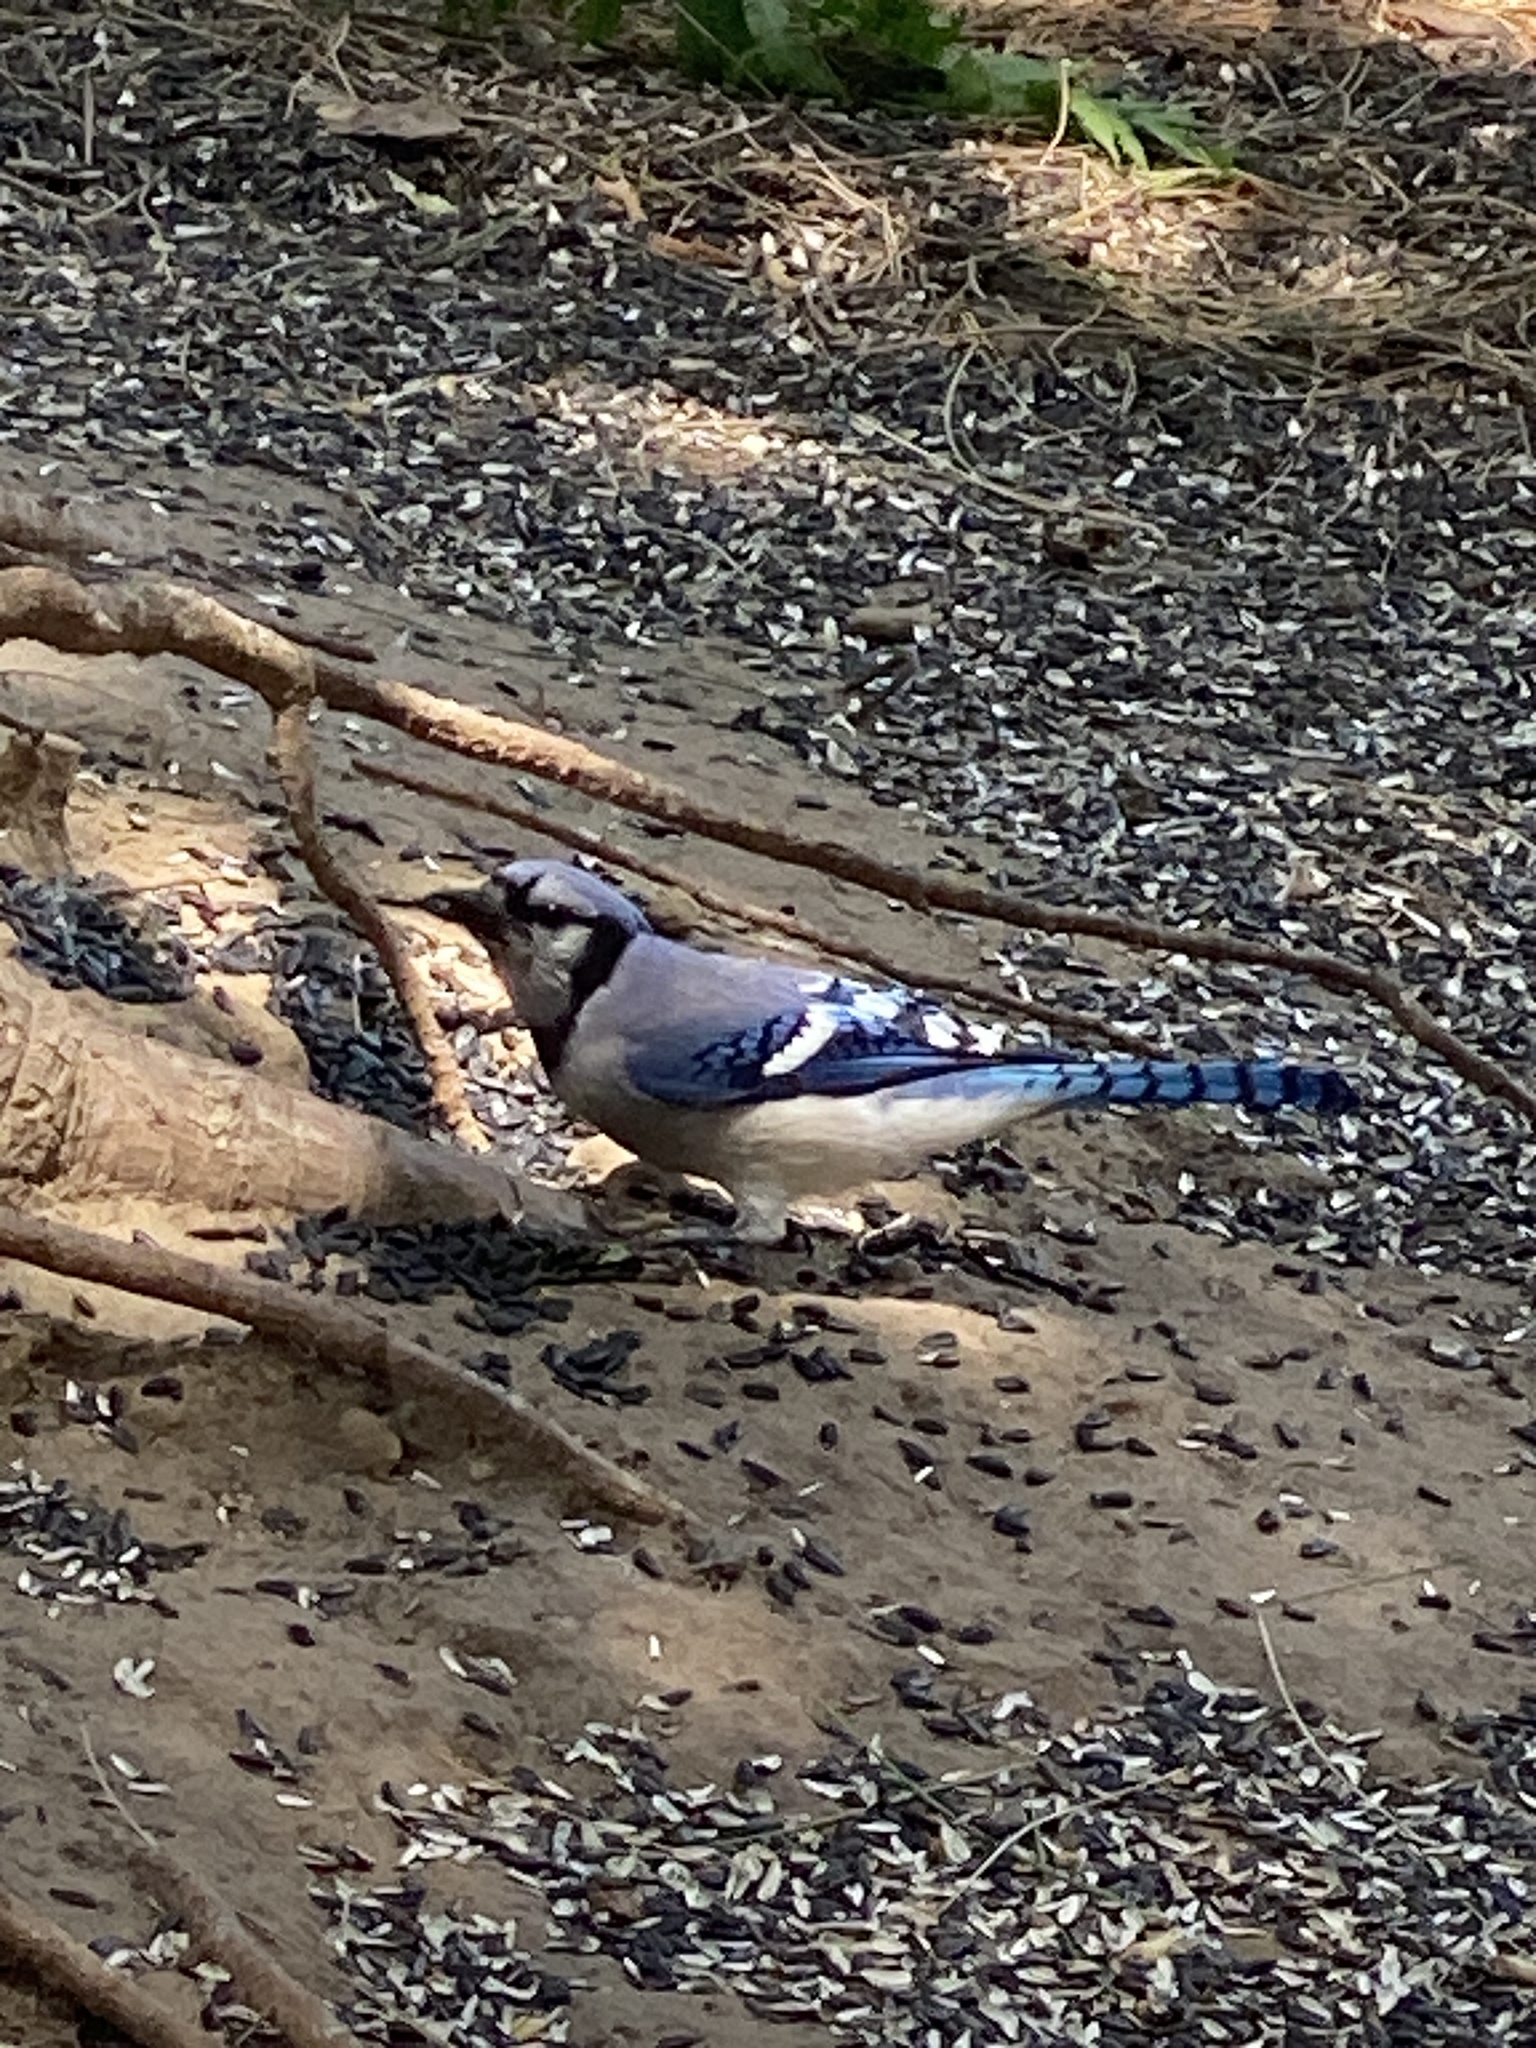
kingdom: Animalia
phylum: Chordata
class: Aves
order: Passeriformes
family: Corvidae
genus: Cyanocitta
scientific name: Cyanocitta cristata
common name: Blue jay
